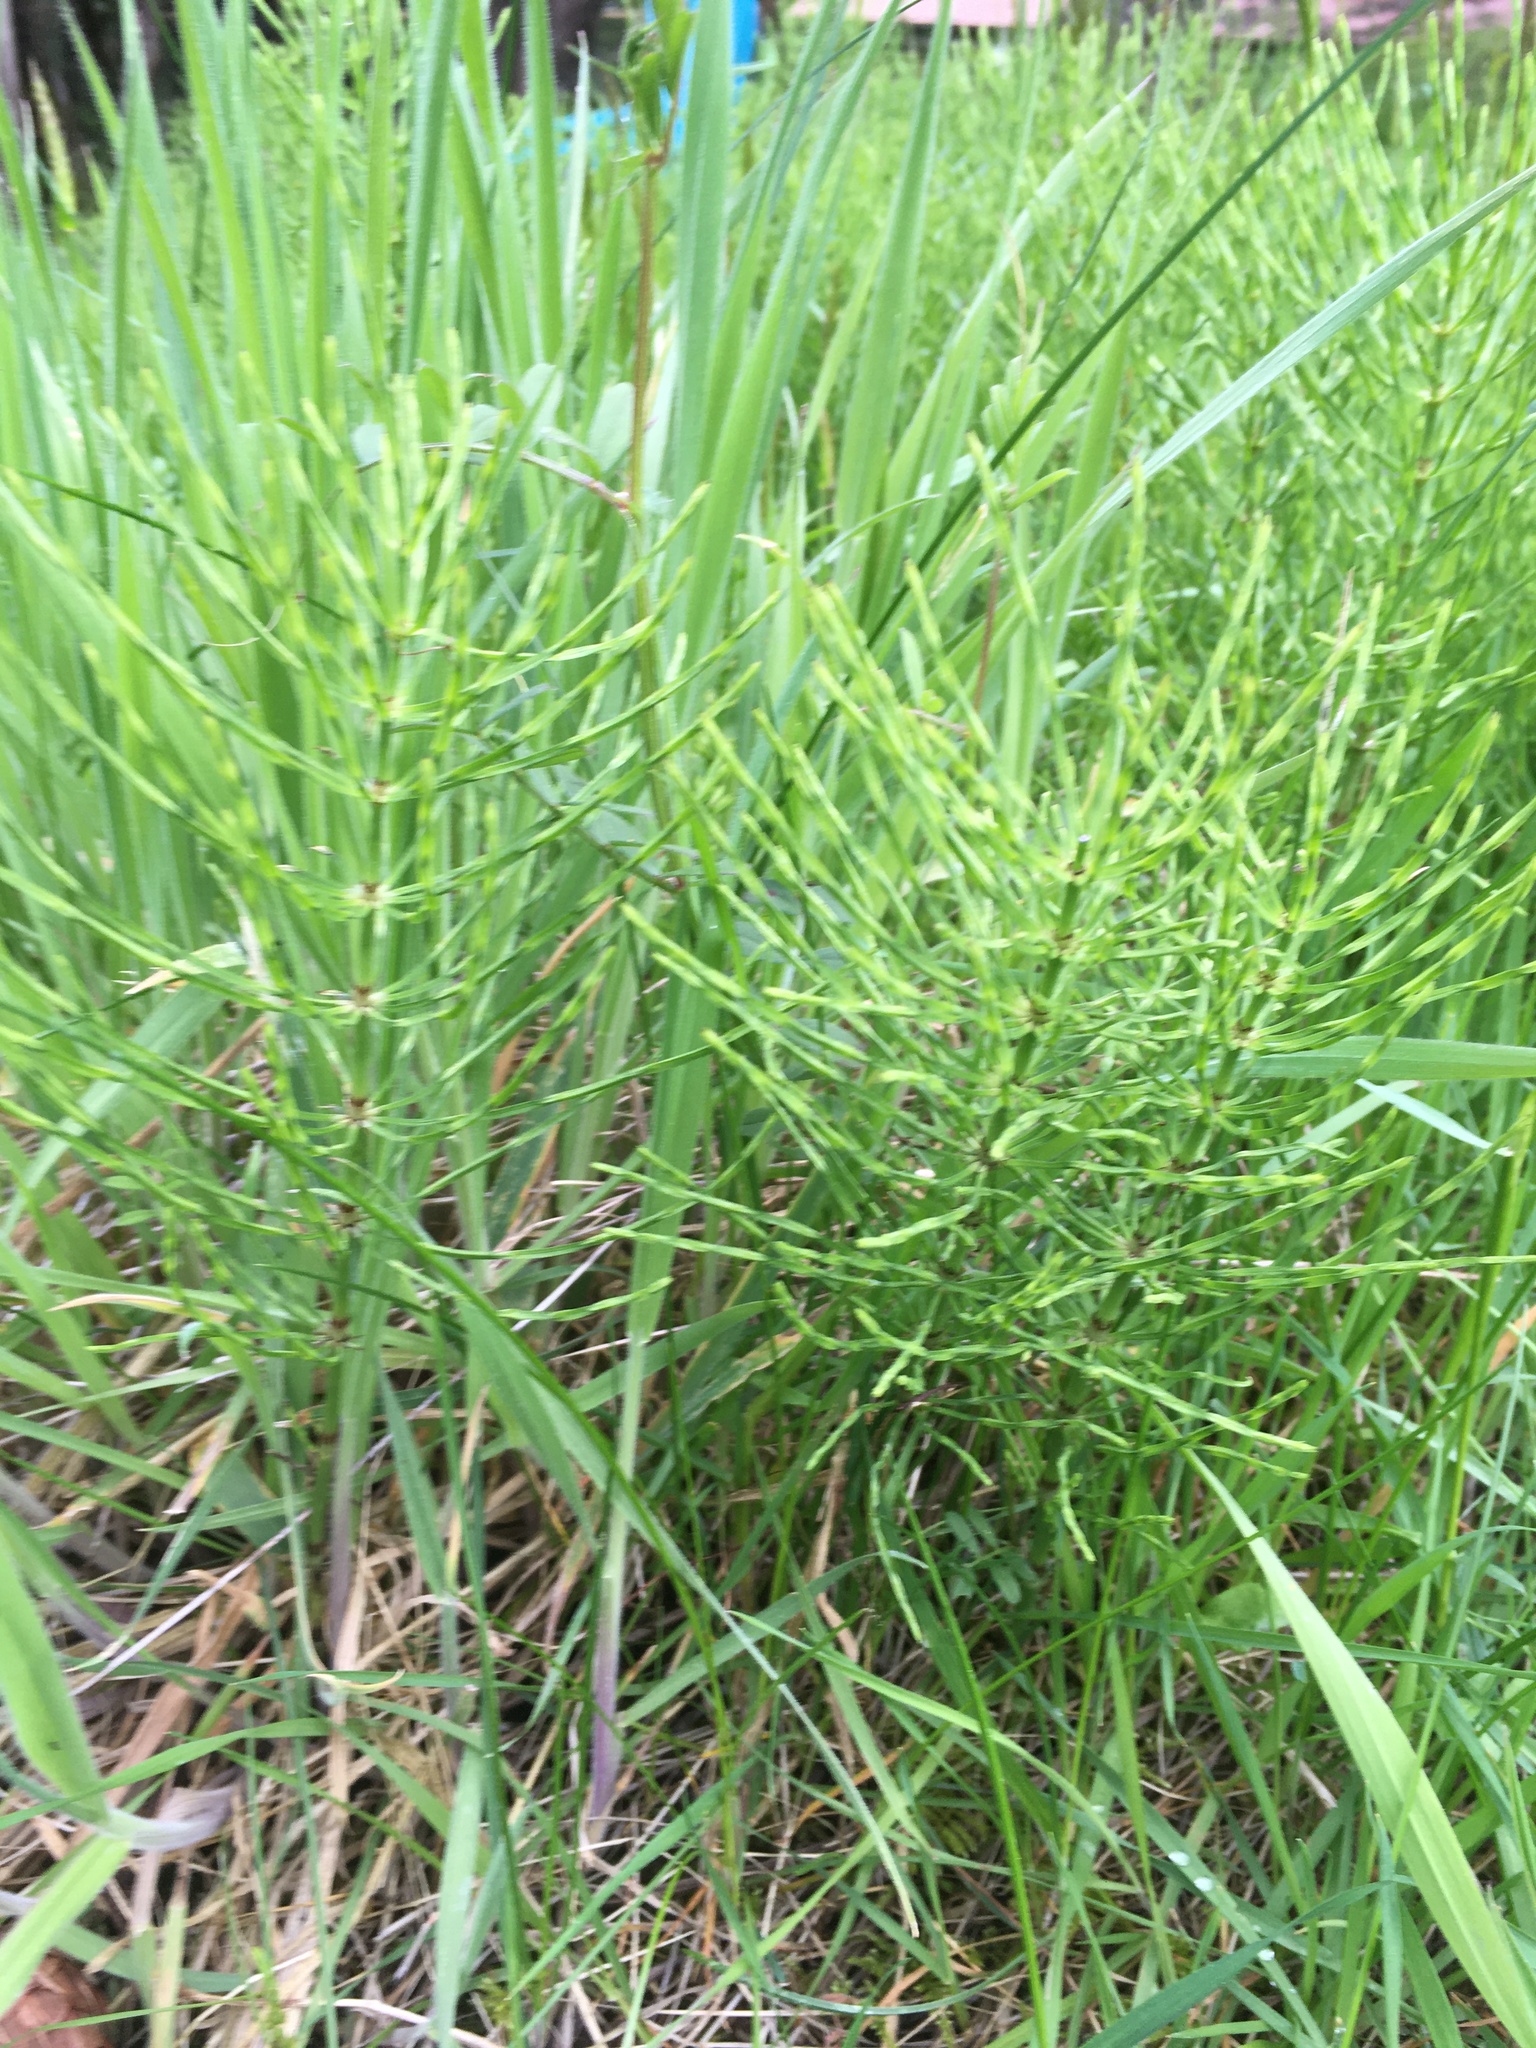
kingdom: Plantae
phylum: Tracheophyta
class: Polypodiopsida
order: Equisetales
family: Equisetaceae
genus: Equisetum
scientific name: Equisetum arvense
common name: Field horsetail
